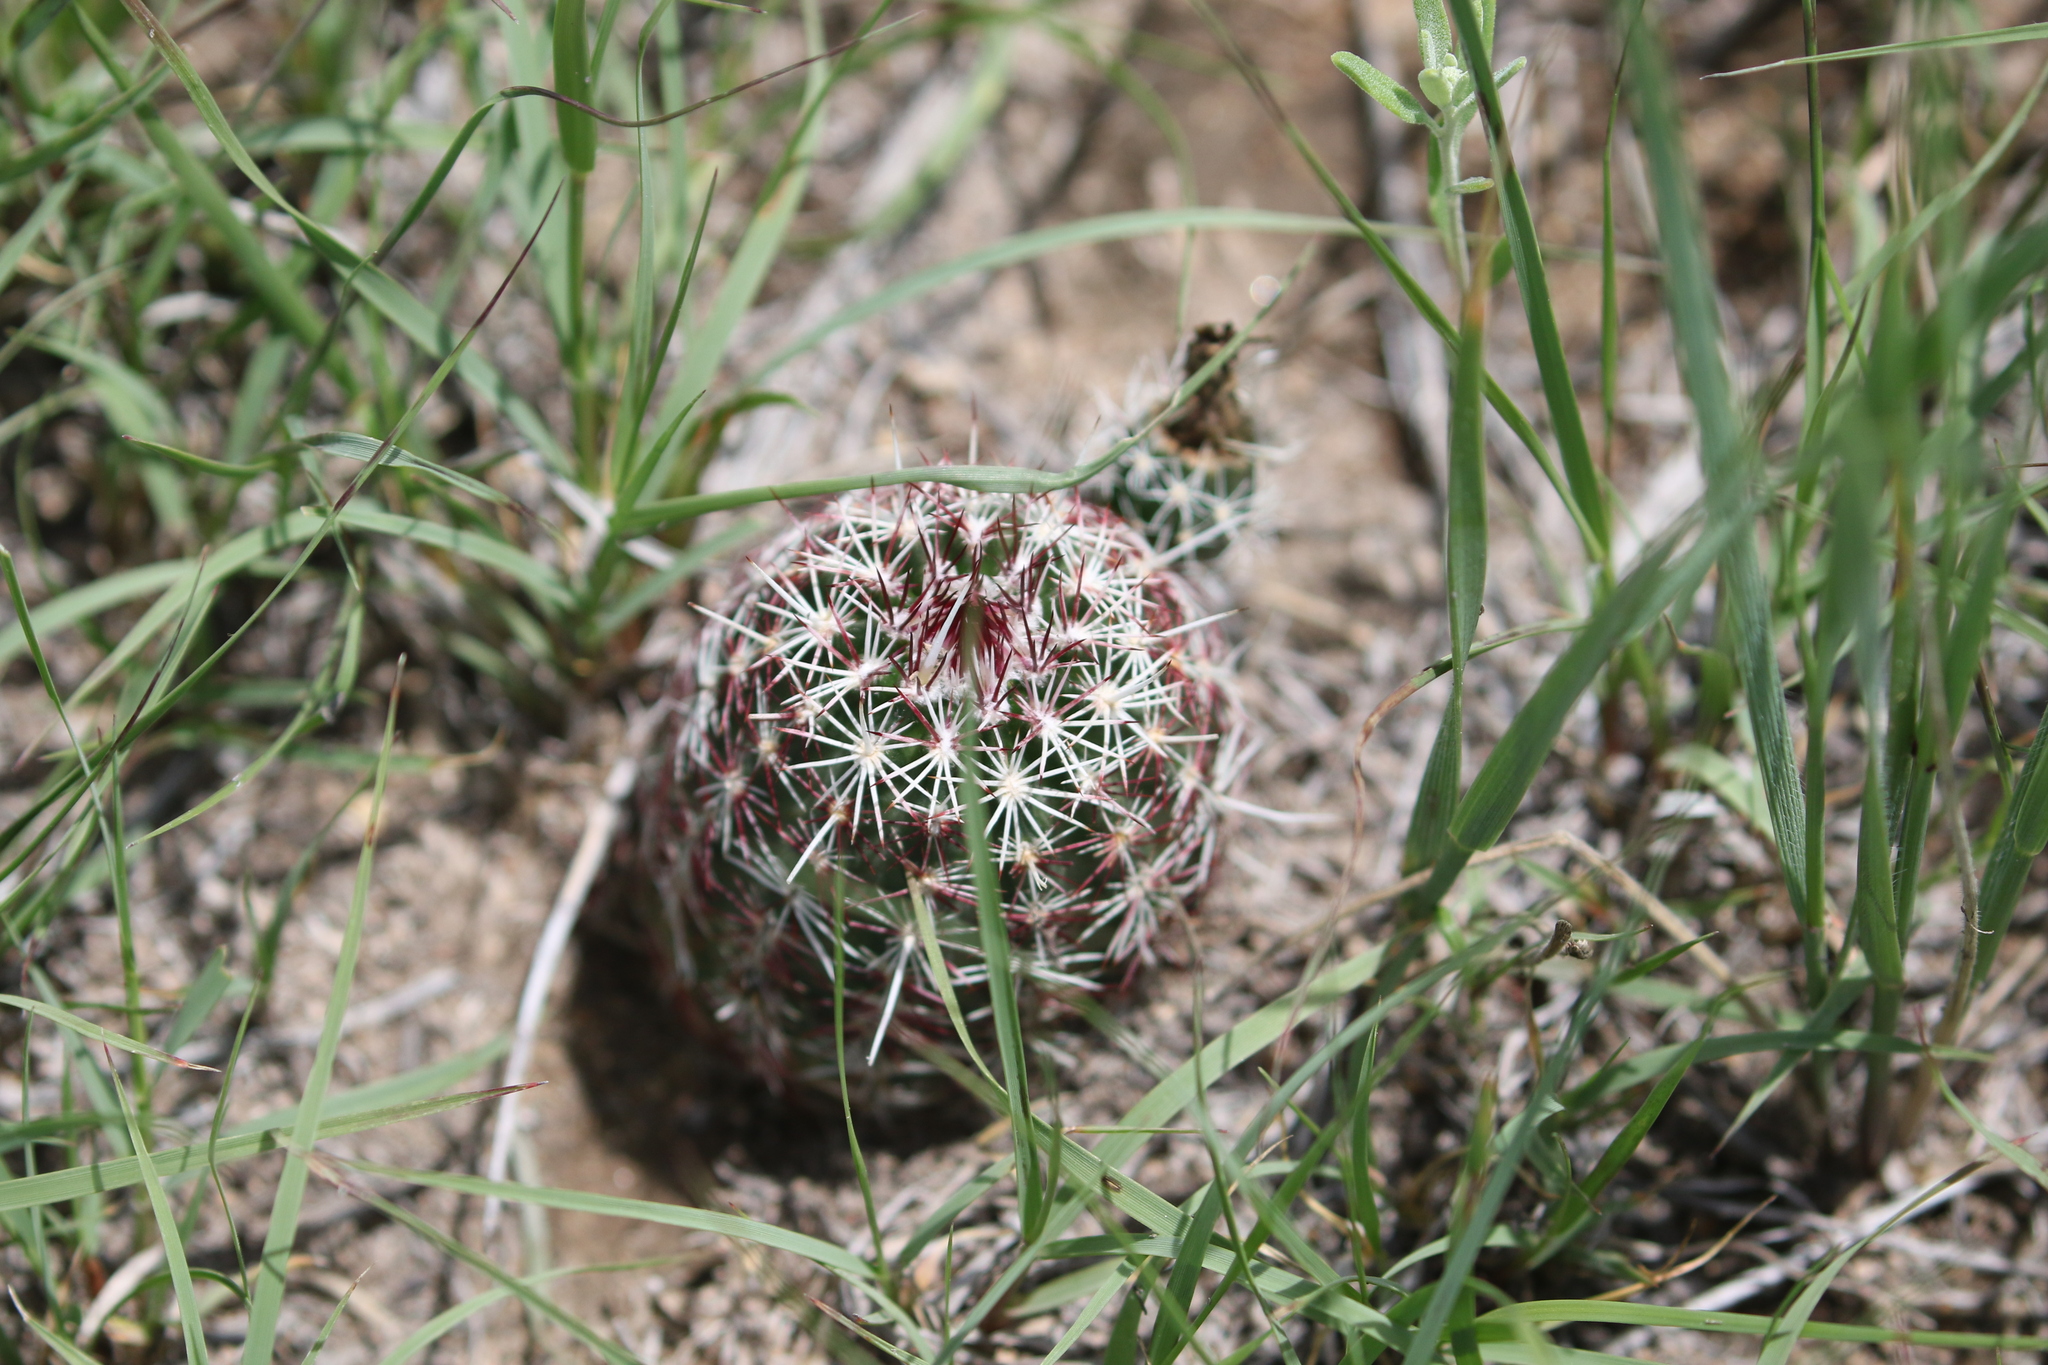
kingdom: Plantae
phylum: Tracheophyta
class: Magnoliopsida
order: Caryophyllales
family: Cactaceae
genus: Echinocereus
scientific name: Echinocereus viridiflorus
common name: Nylon hedgehog cactus
